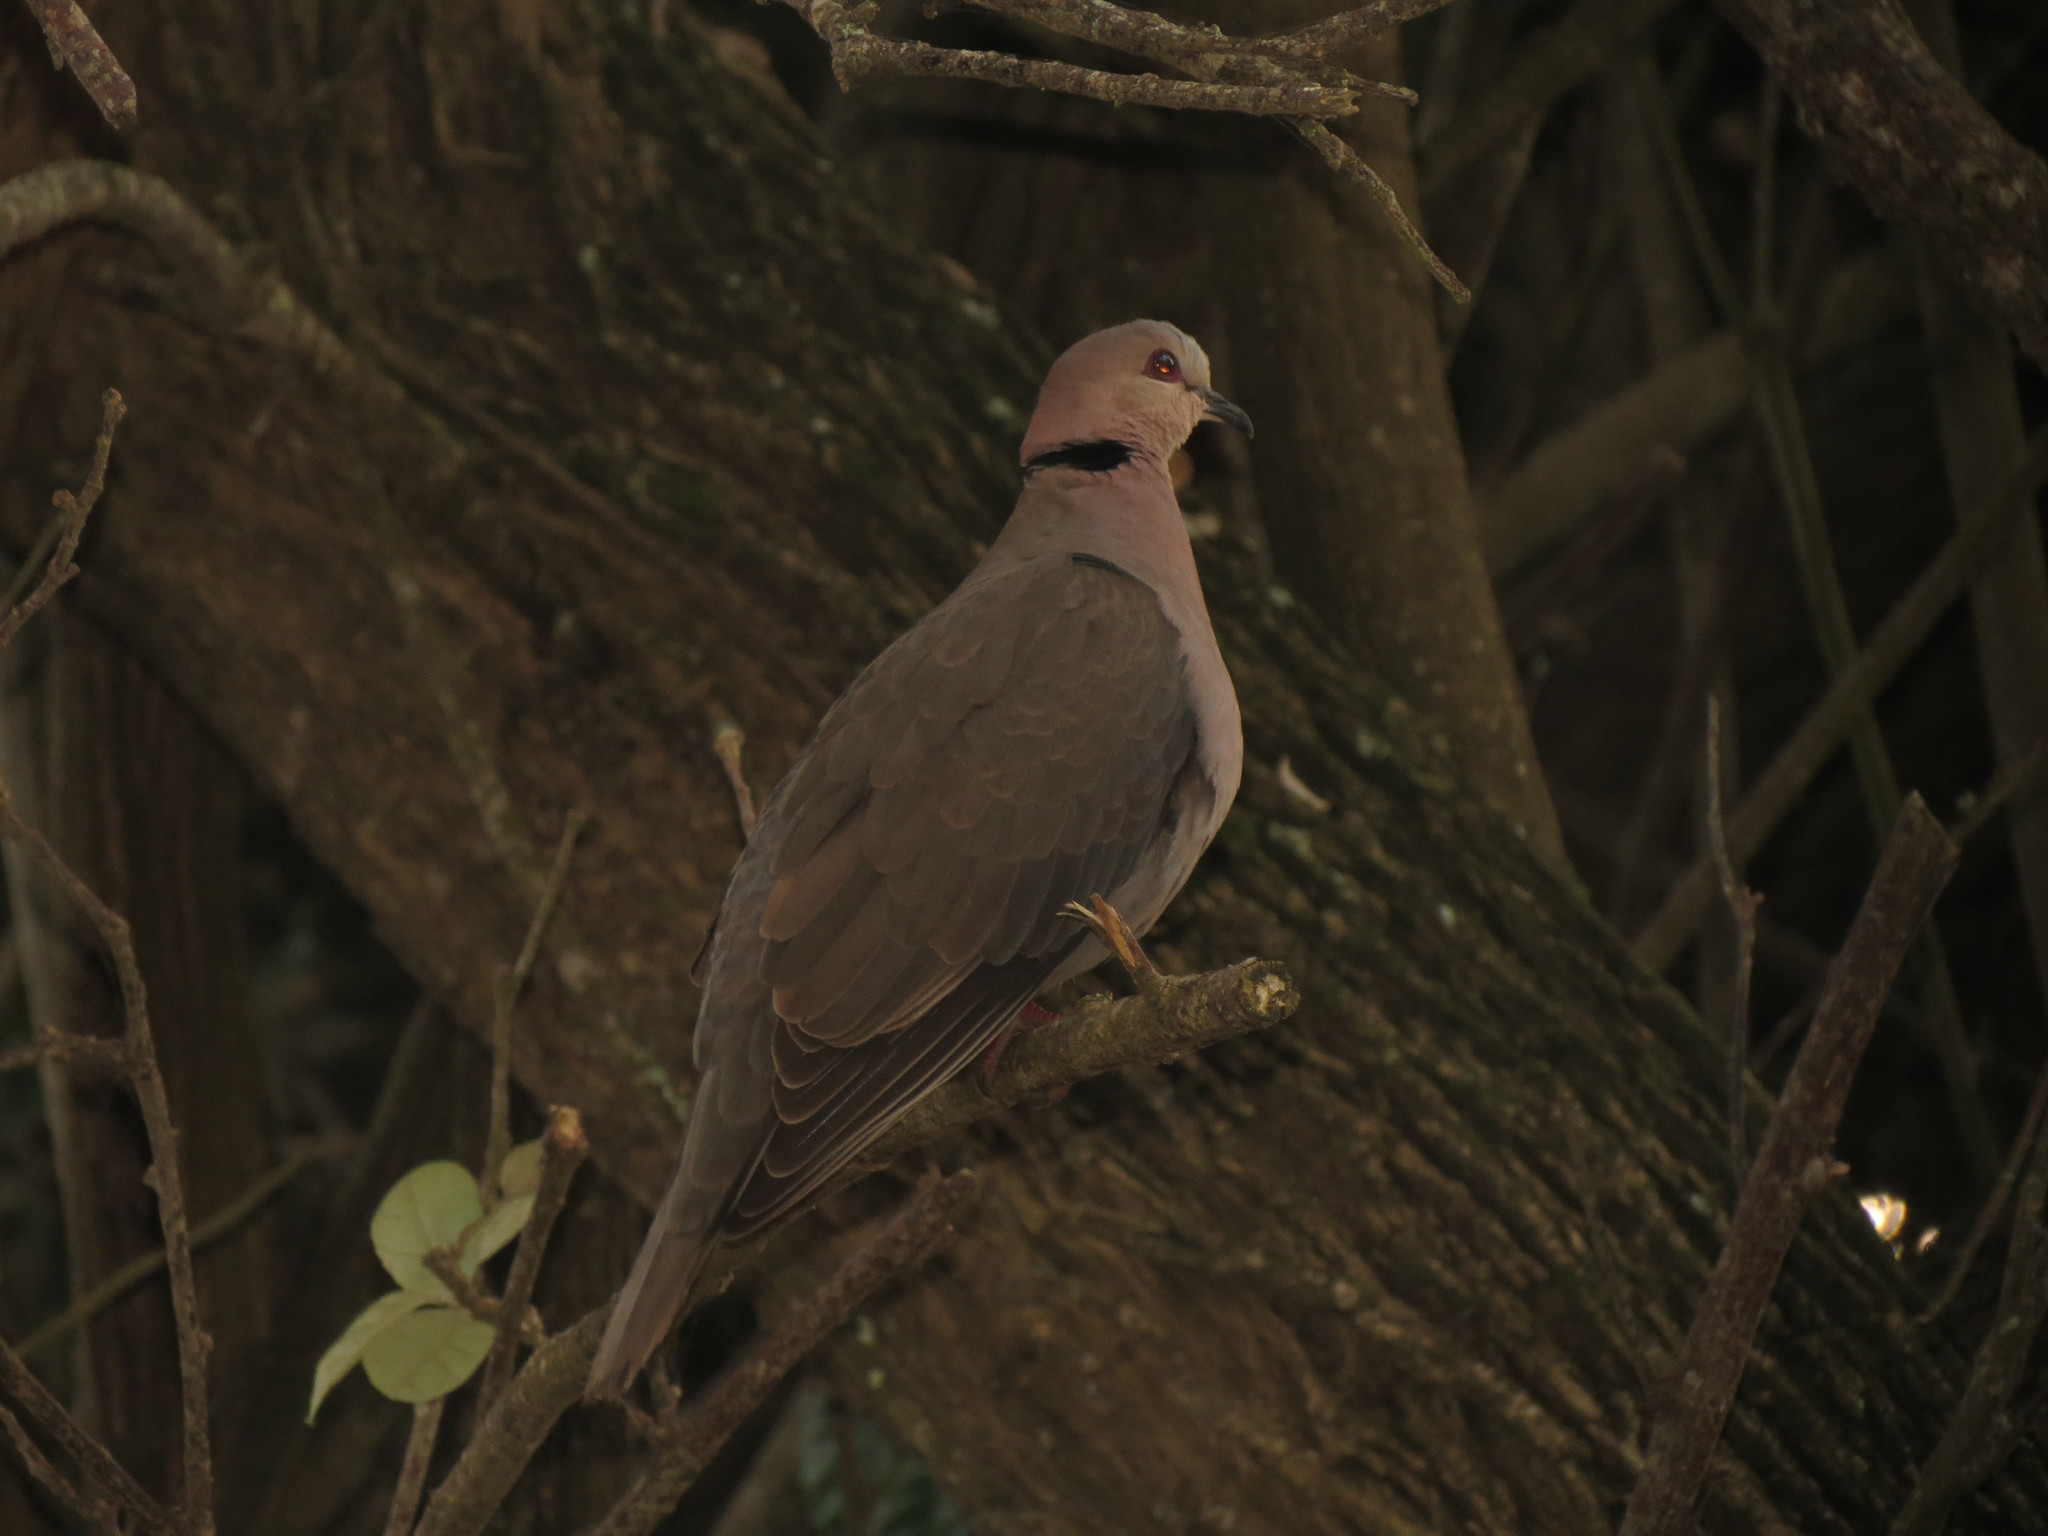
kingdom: Animalia
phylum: Chordata
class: Aves
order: Columbiformes
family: Columbidae
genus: Streptopelia
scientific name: Streptopelia semitorquata
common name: Red-eyed dove
